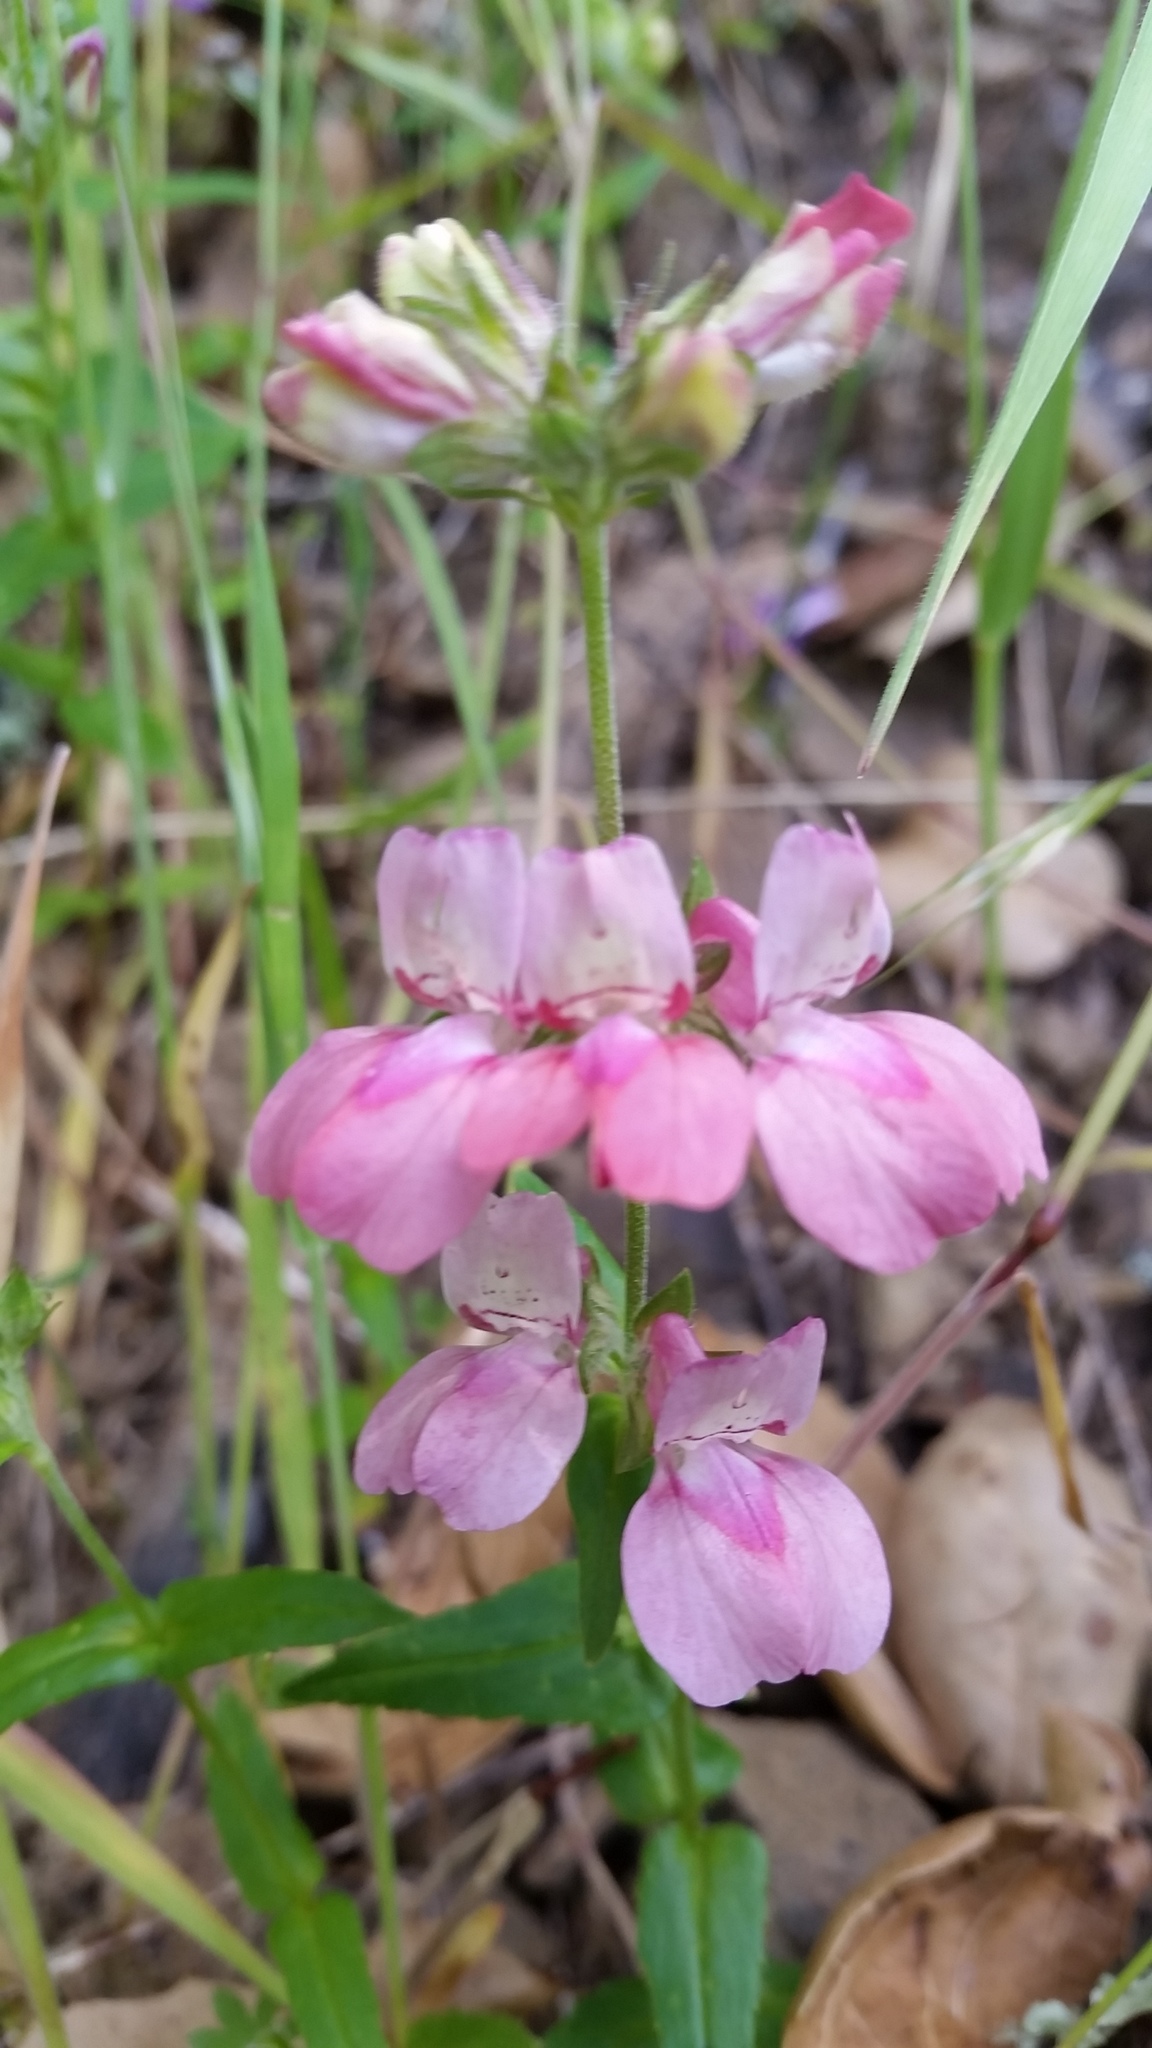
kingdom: Plantae
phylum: Tracheophyta
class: Magnoliopsida
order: Lamiales
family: Plantaginaceae
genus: Collinsia
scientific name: Collinsia heterophylla
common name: Chinese-houses
